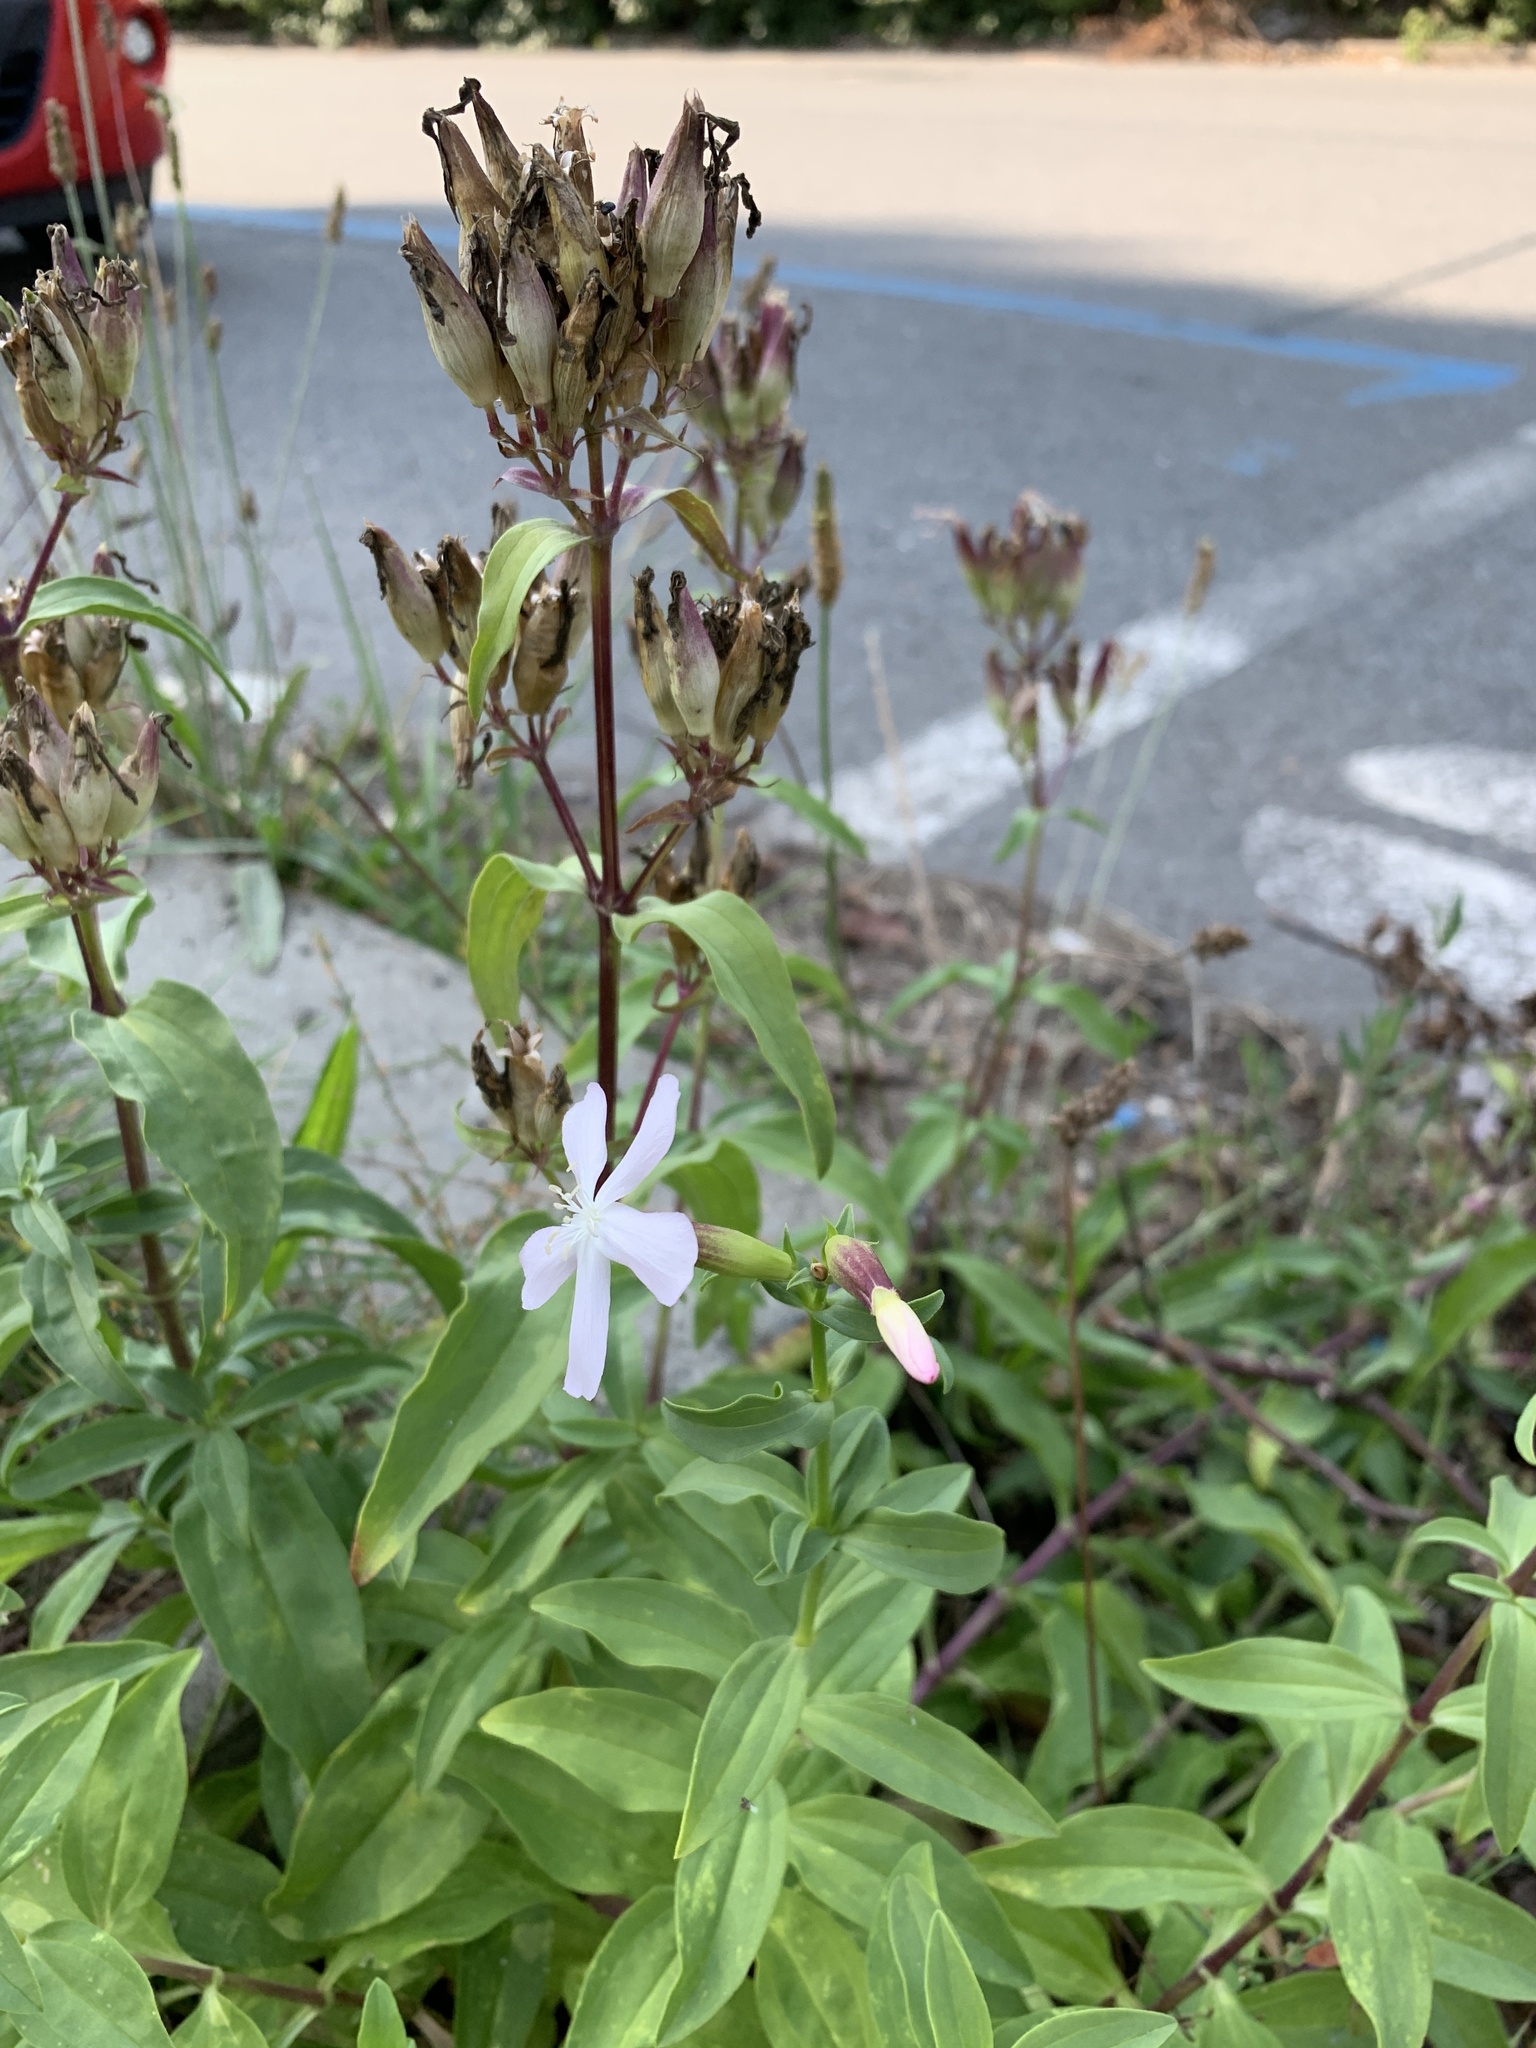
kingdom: Plantae
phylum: Tracheophyta
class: Magnoliopsida
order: Caryophyllales
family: Caryophyllaceae
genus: Saponaria
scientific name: Saponaria officinalis
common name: Soapwort
